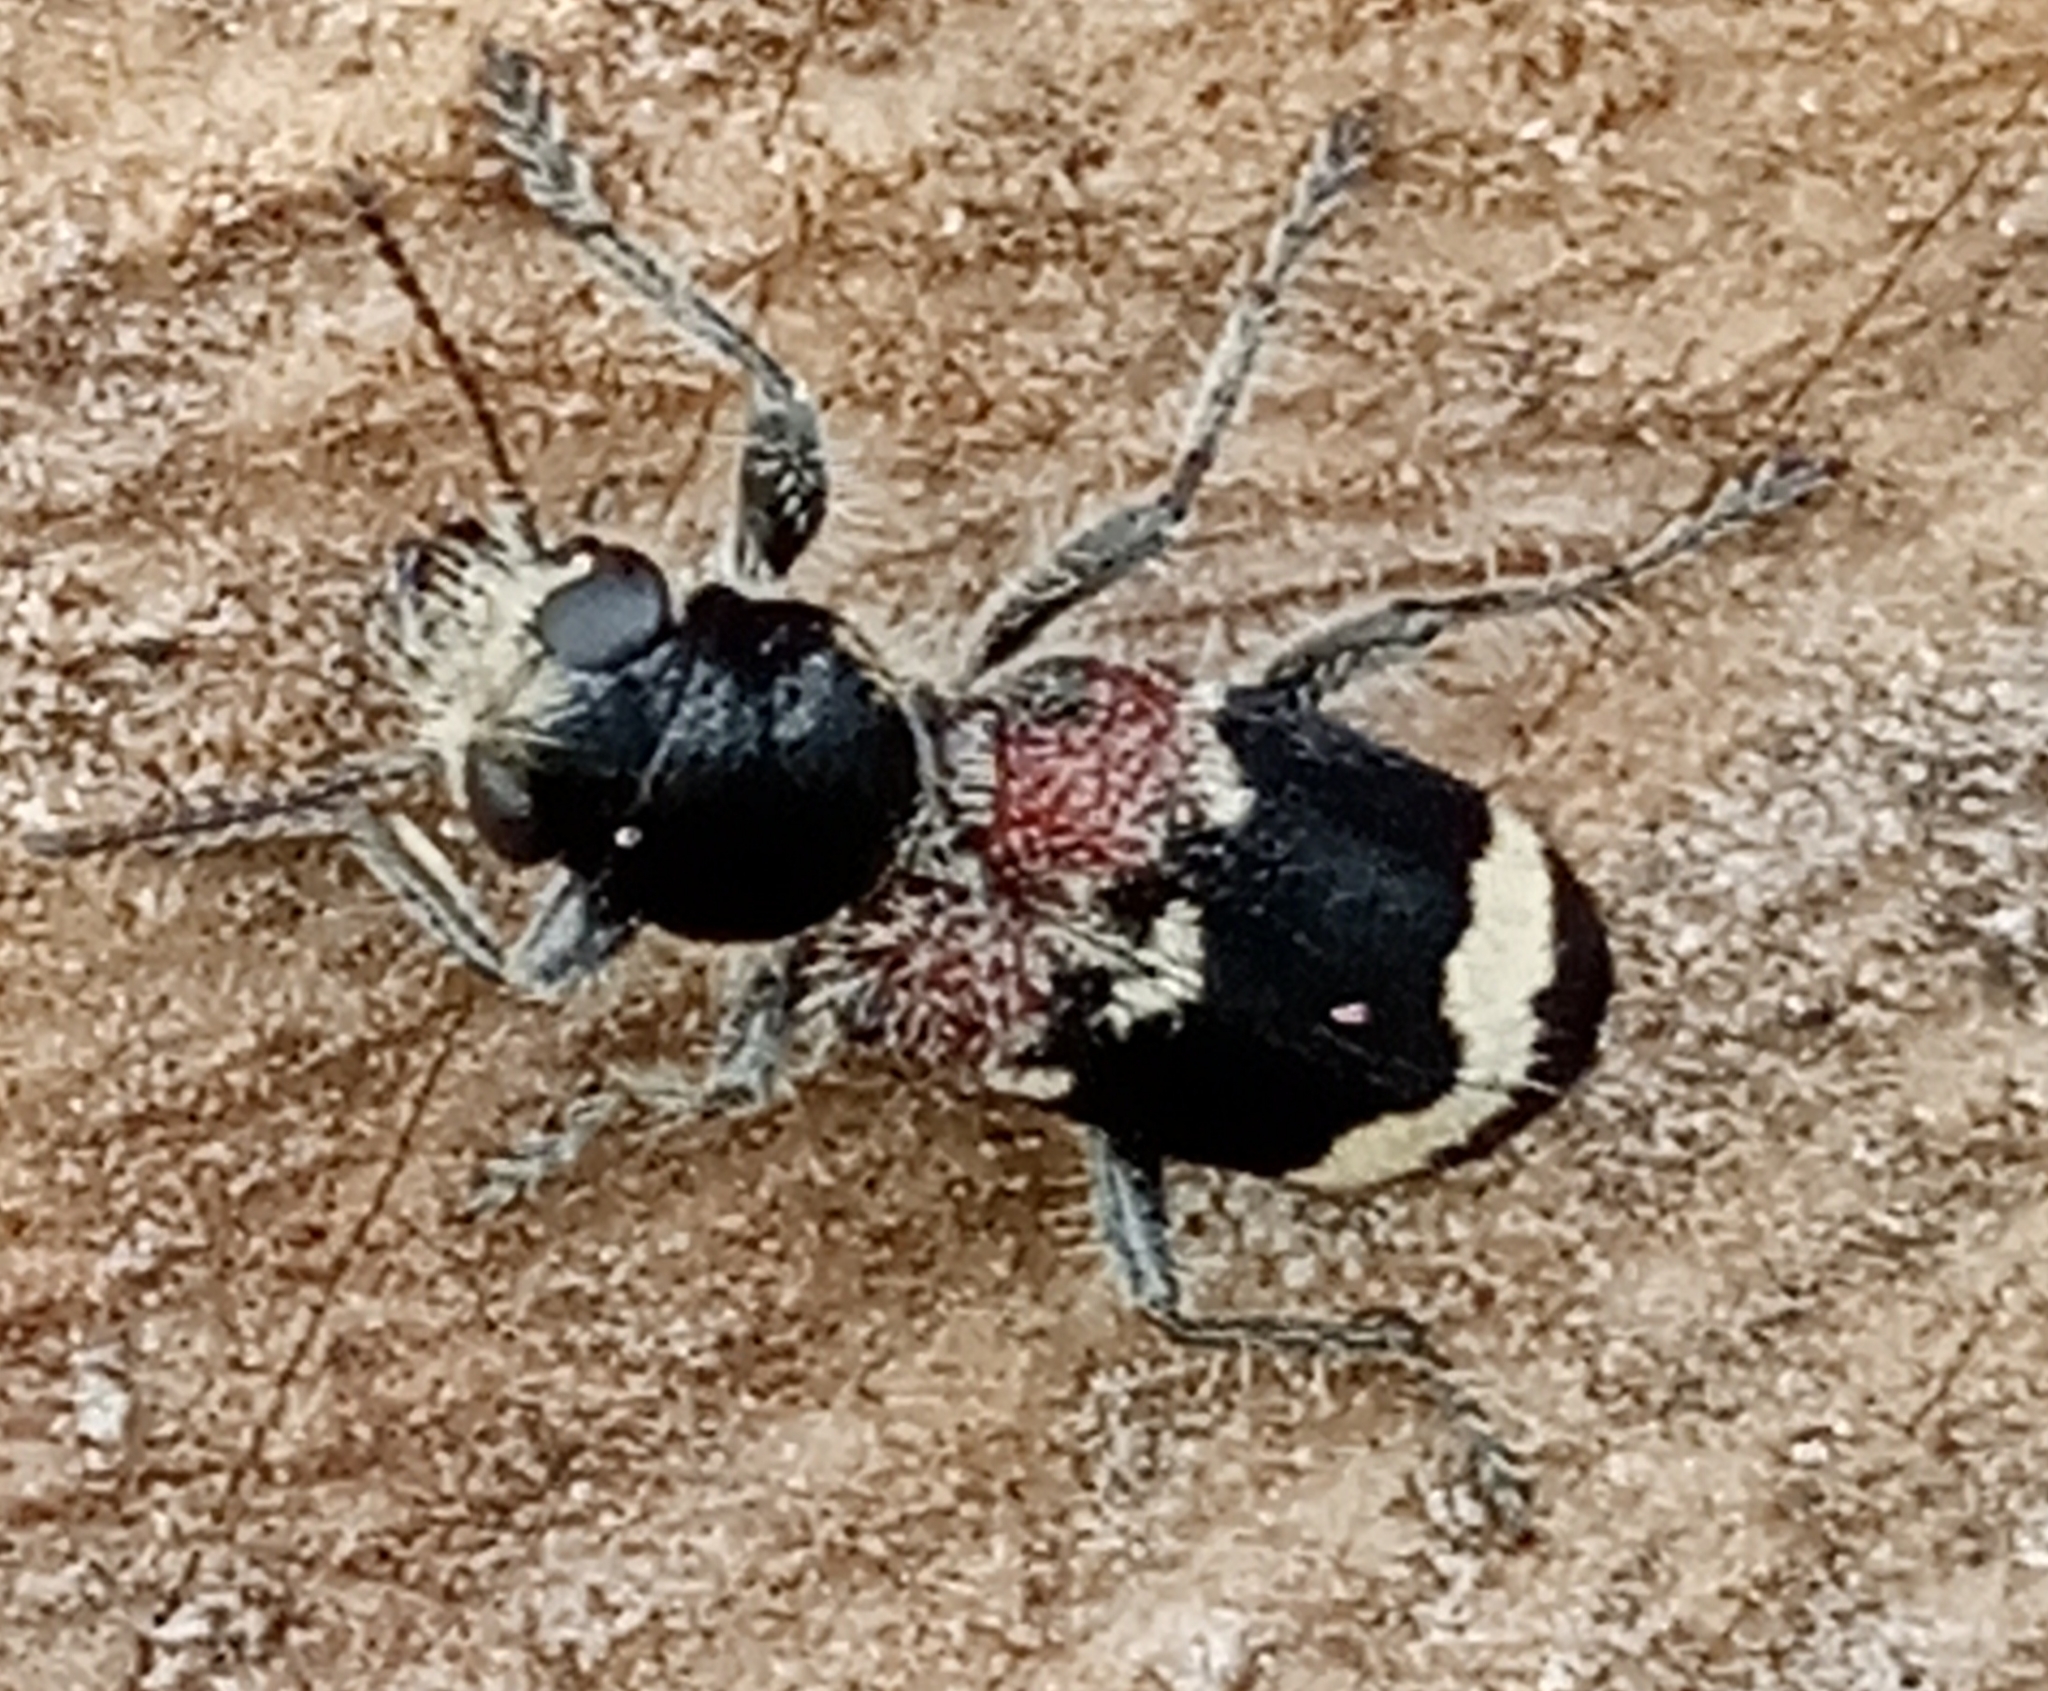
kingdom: Animalia
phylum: Arthropoda
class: Insecta
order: Coleoptera
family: Cleridae
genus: Clerus
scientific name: Clerus mutillarius
